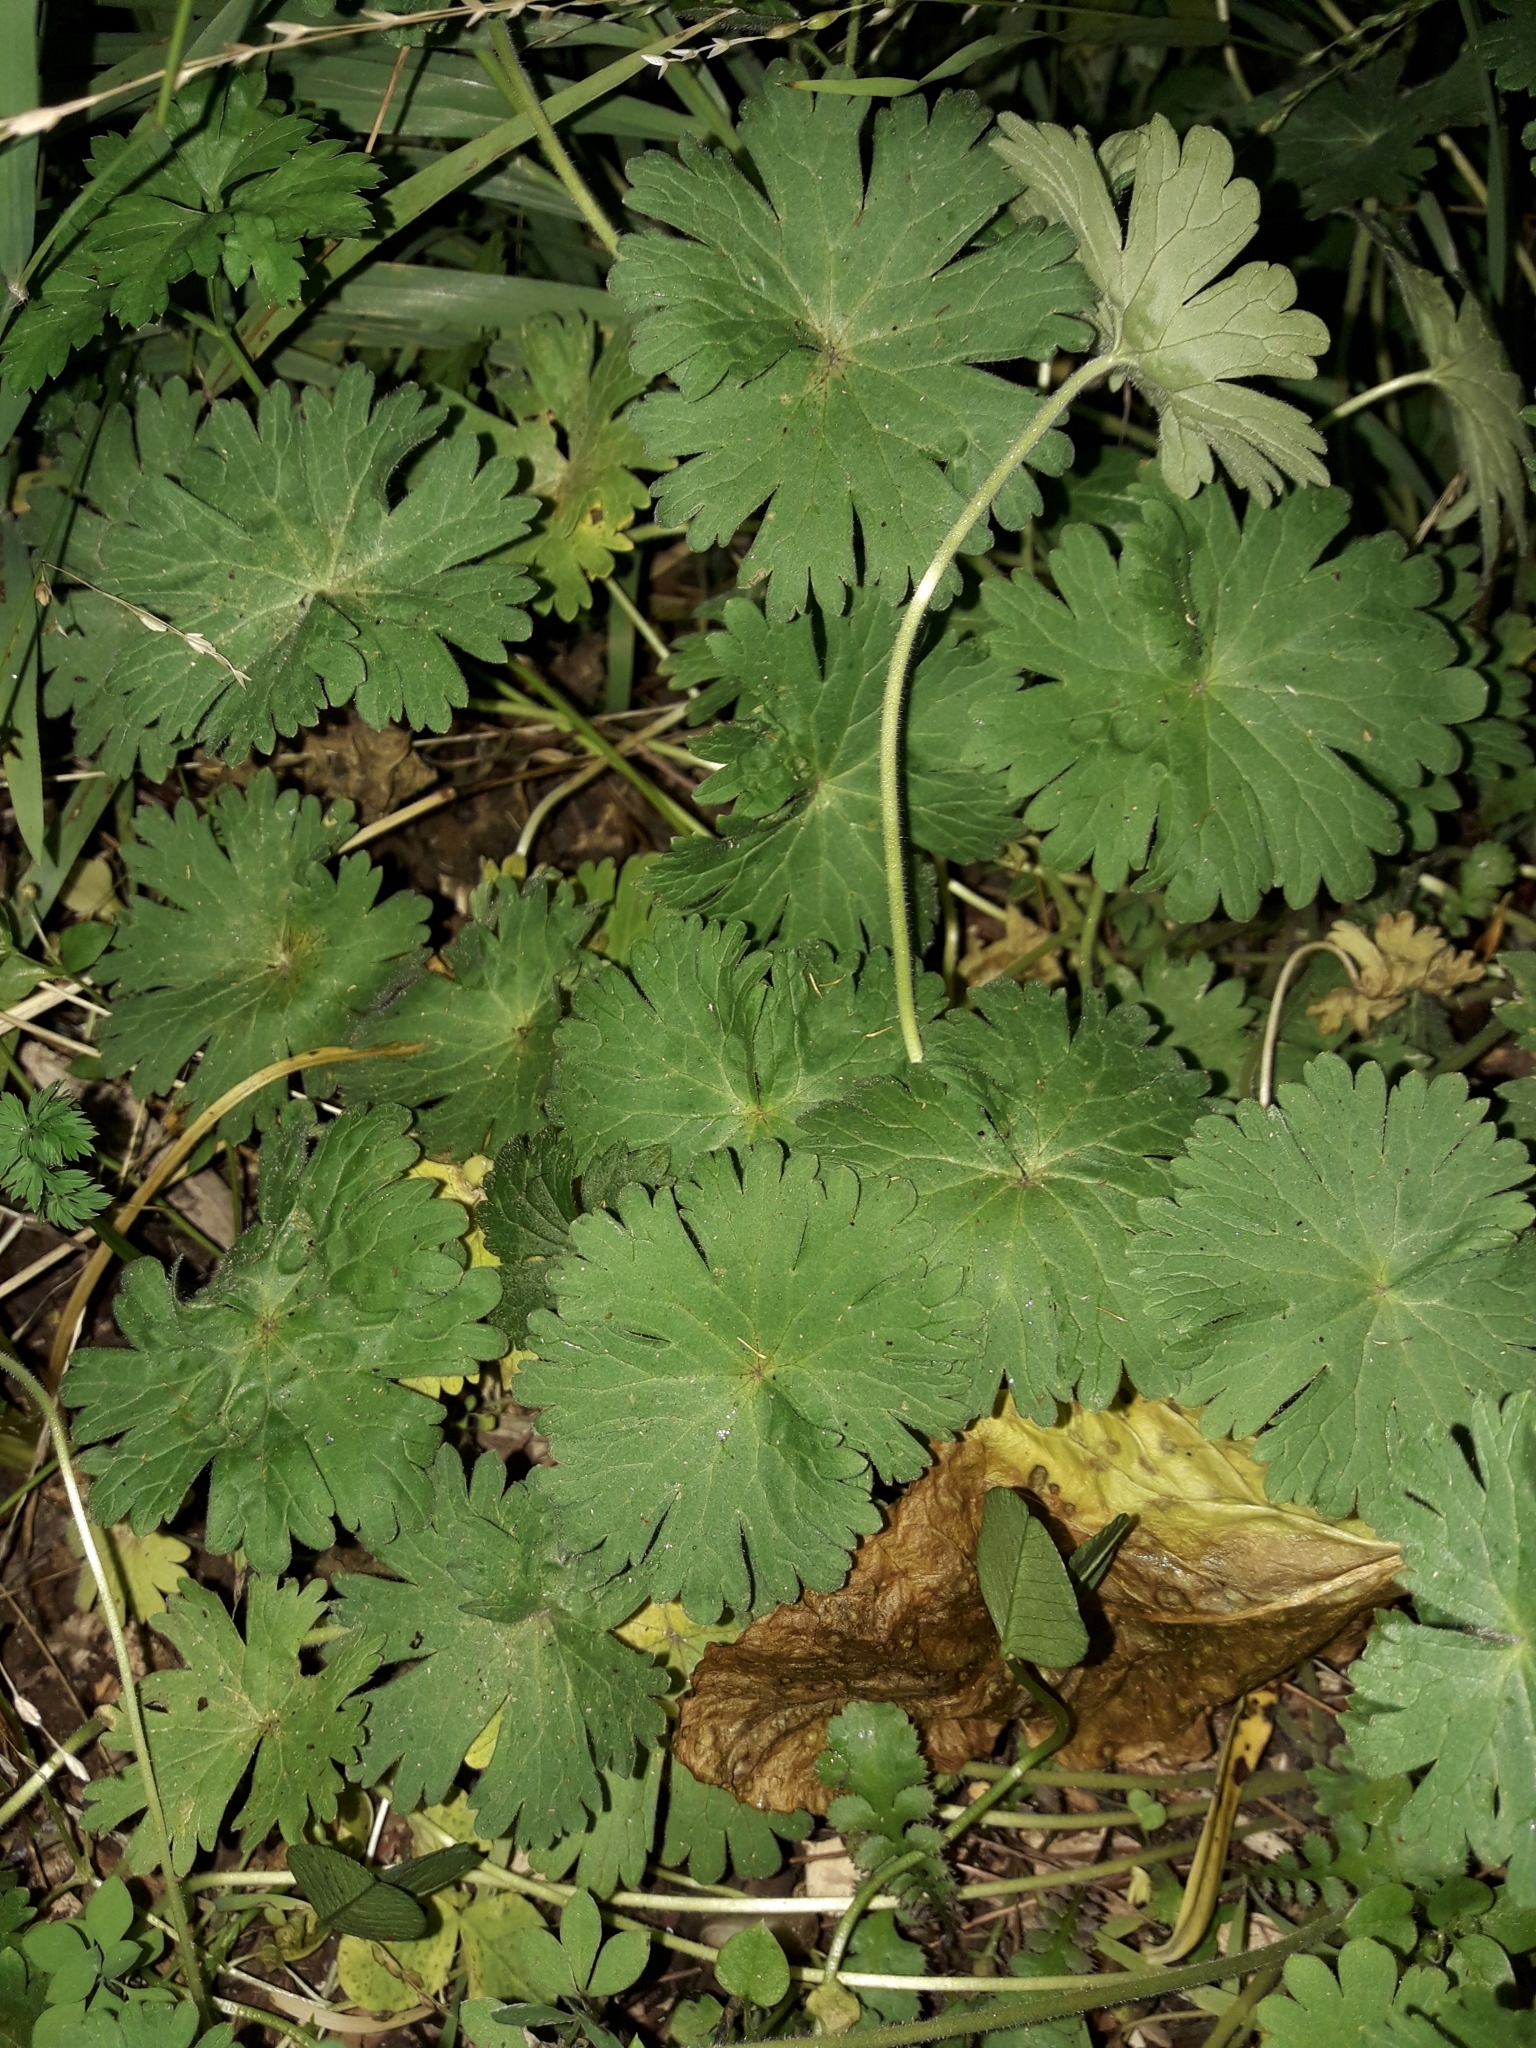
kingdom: Plantae
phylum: Tracheophyta
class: Magnoliopsida
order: Geraniales
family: Geraniaceae
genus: Geranium
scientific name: Geranium molle
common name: Dove's-foot crane's-bill
